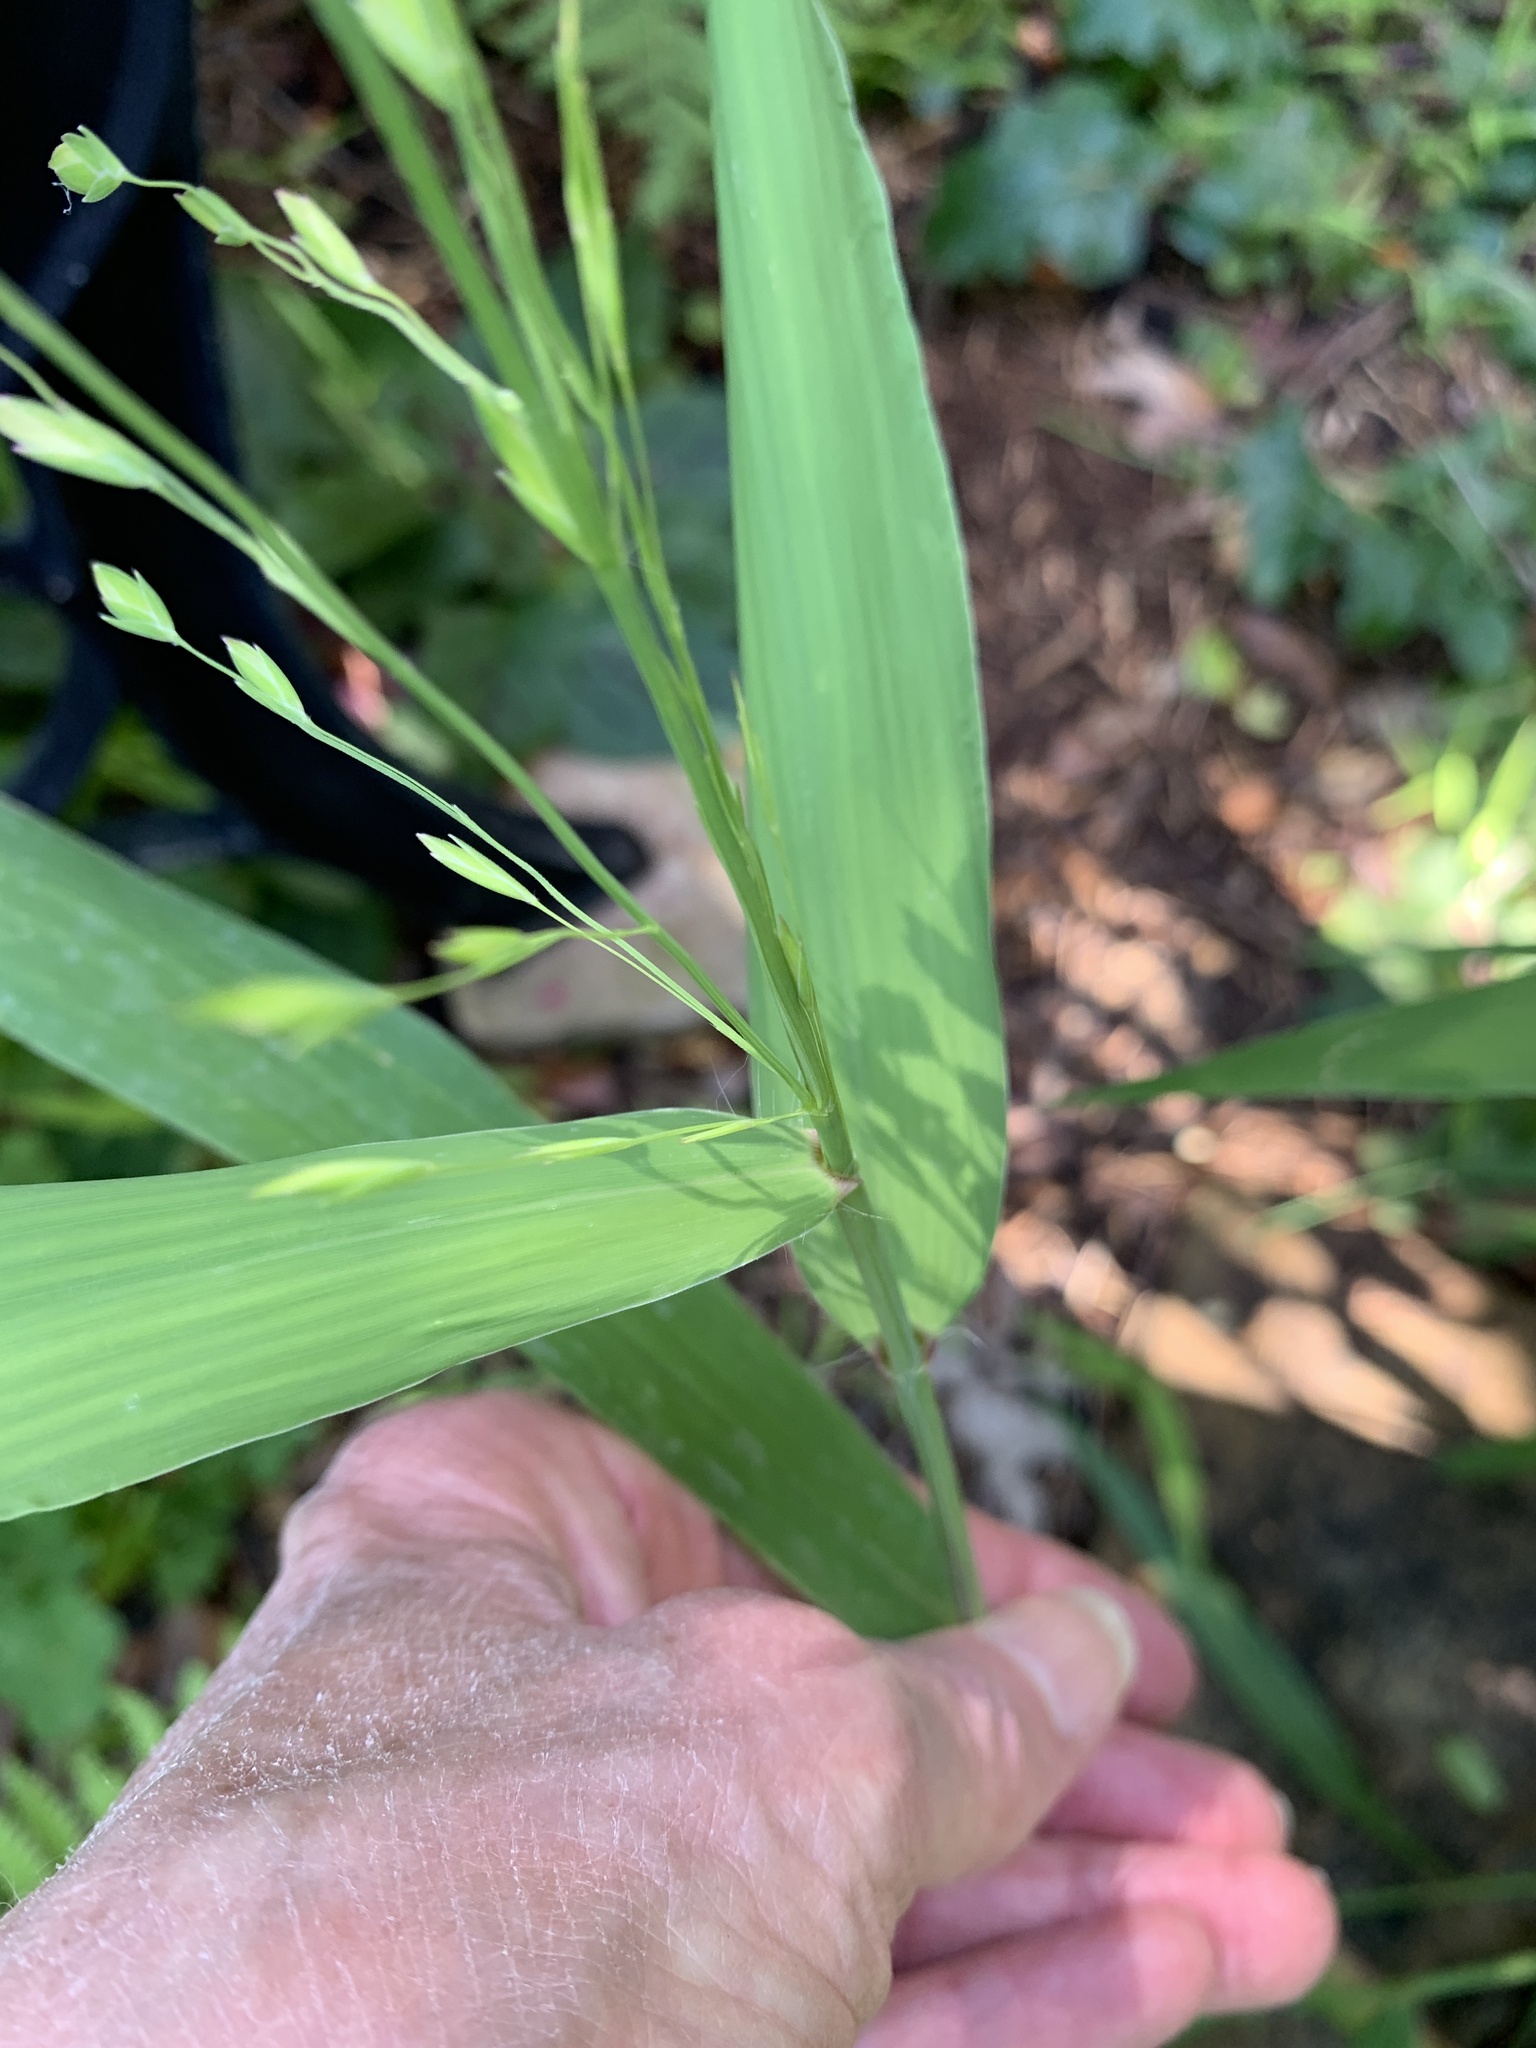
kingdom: Plantae
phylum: Tracheophyta
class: Liliopsida
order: Poales
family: Poaceae
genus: Chasmanthium
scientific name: Chasmanthium latifolium
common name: Broad-leaved chasmanthium
